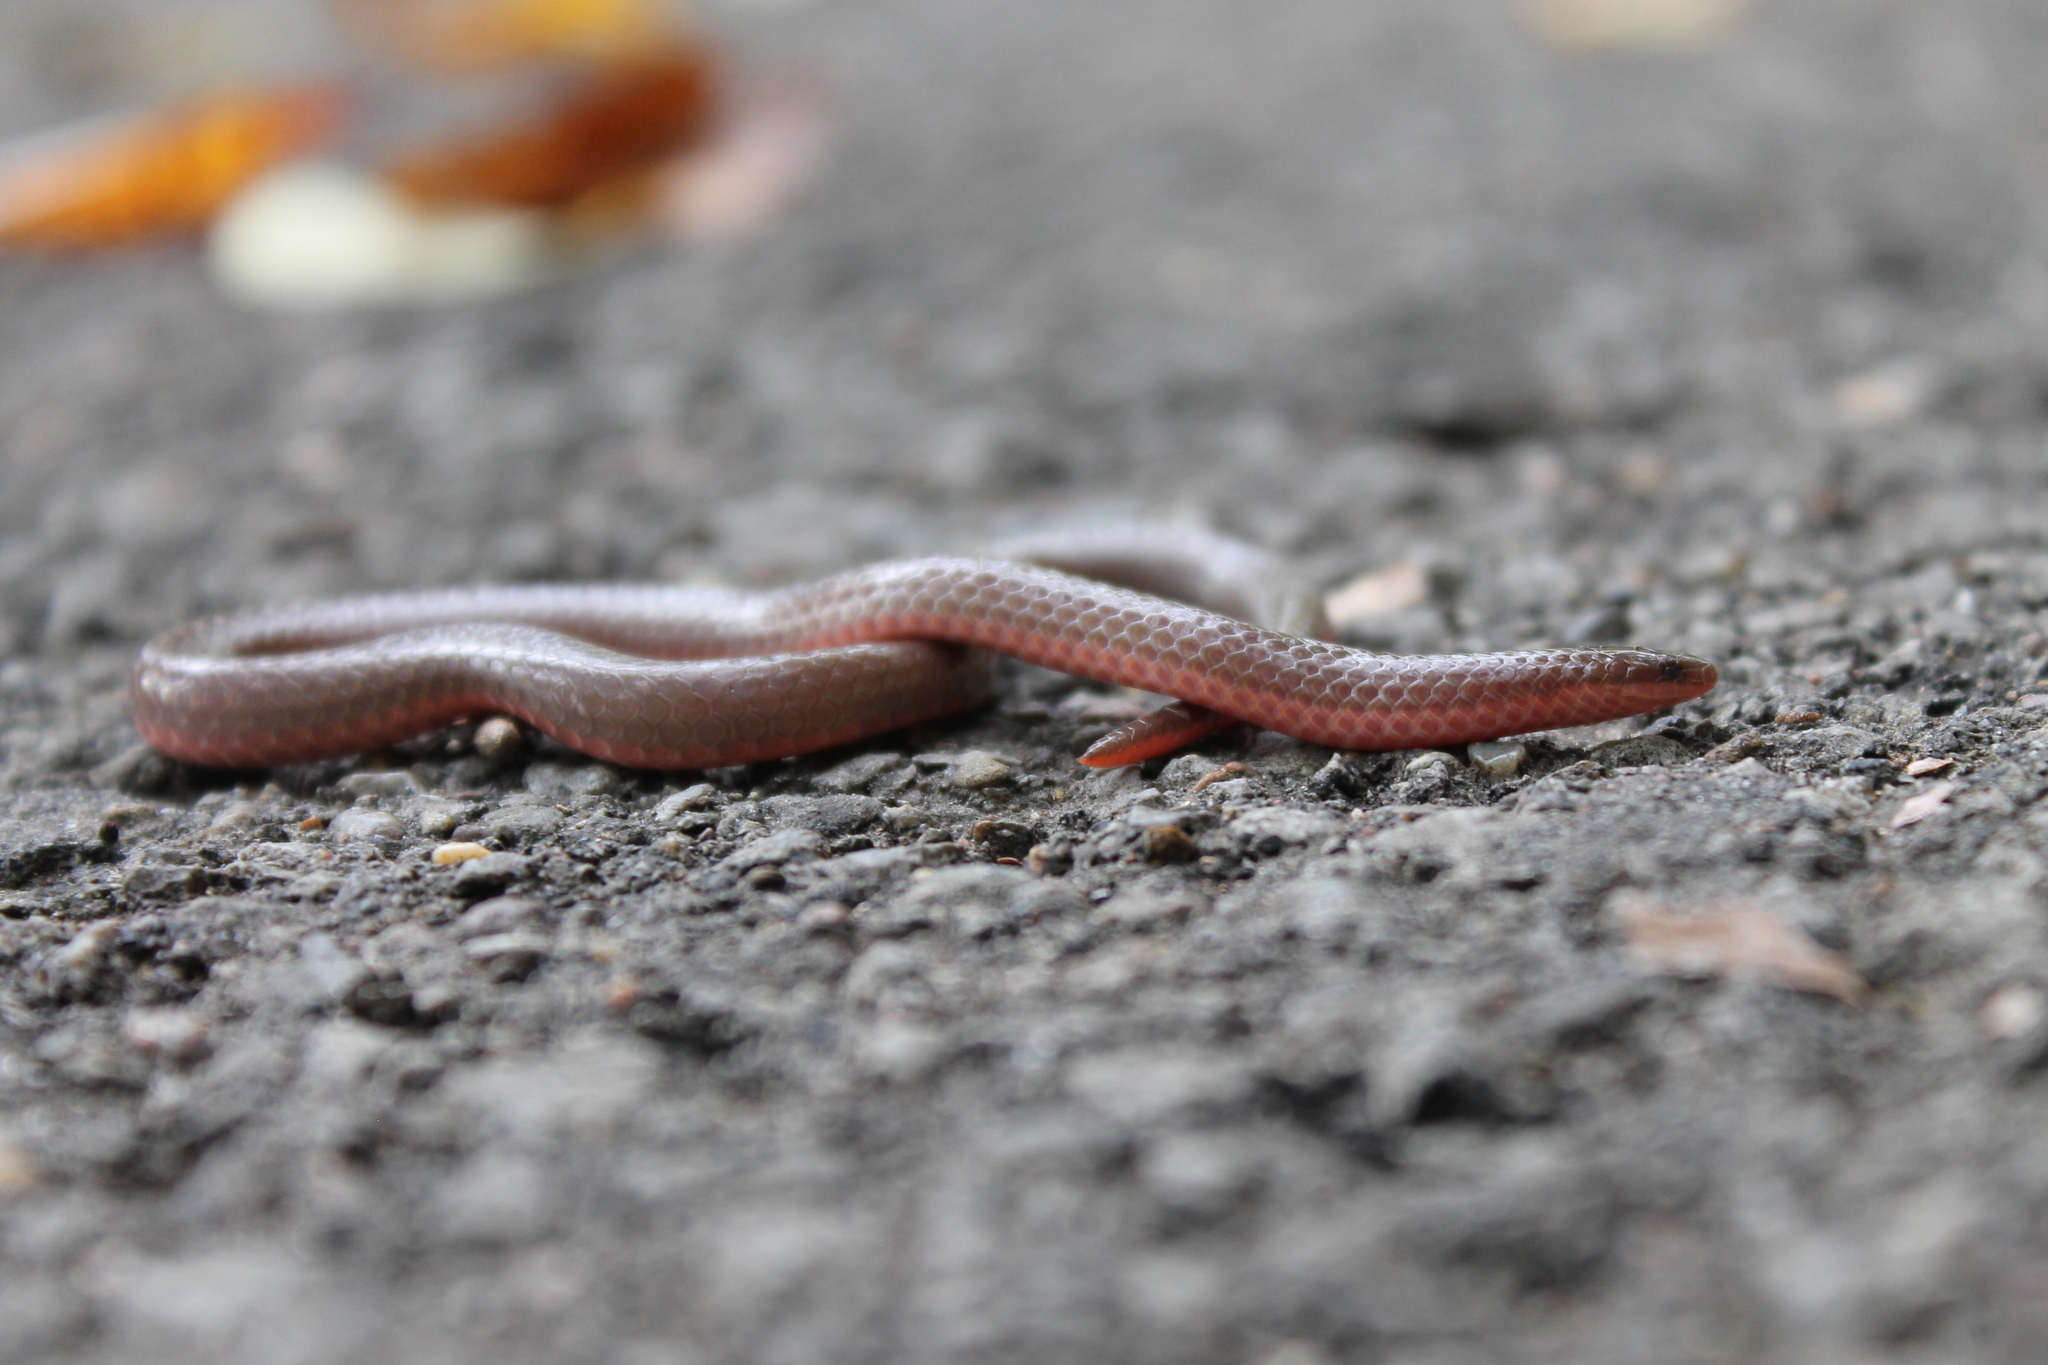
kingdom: Animalia
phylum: Chordata
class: Squamata
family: Colubridae
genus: Carphophis
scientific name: Carphophis amoenus
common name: Eastern worm snake
